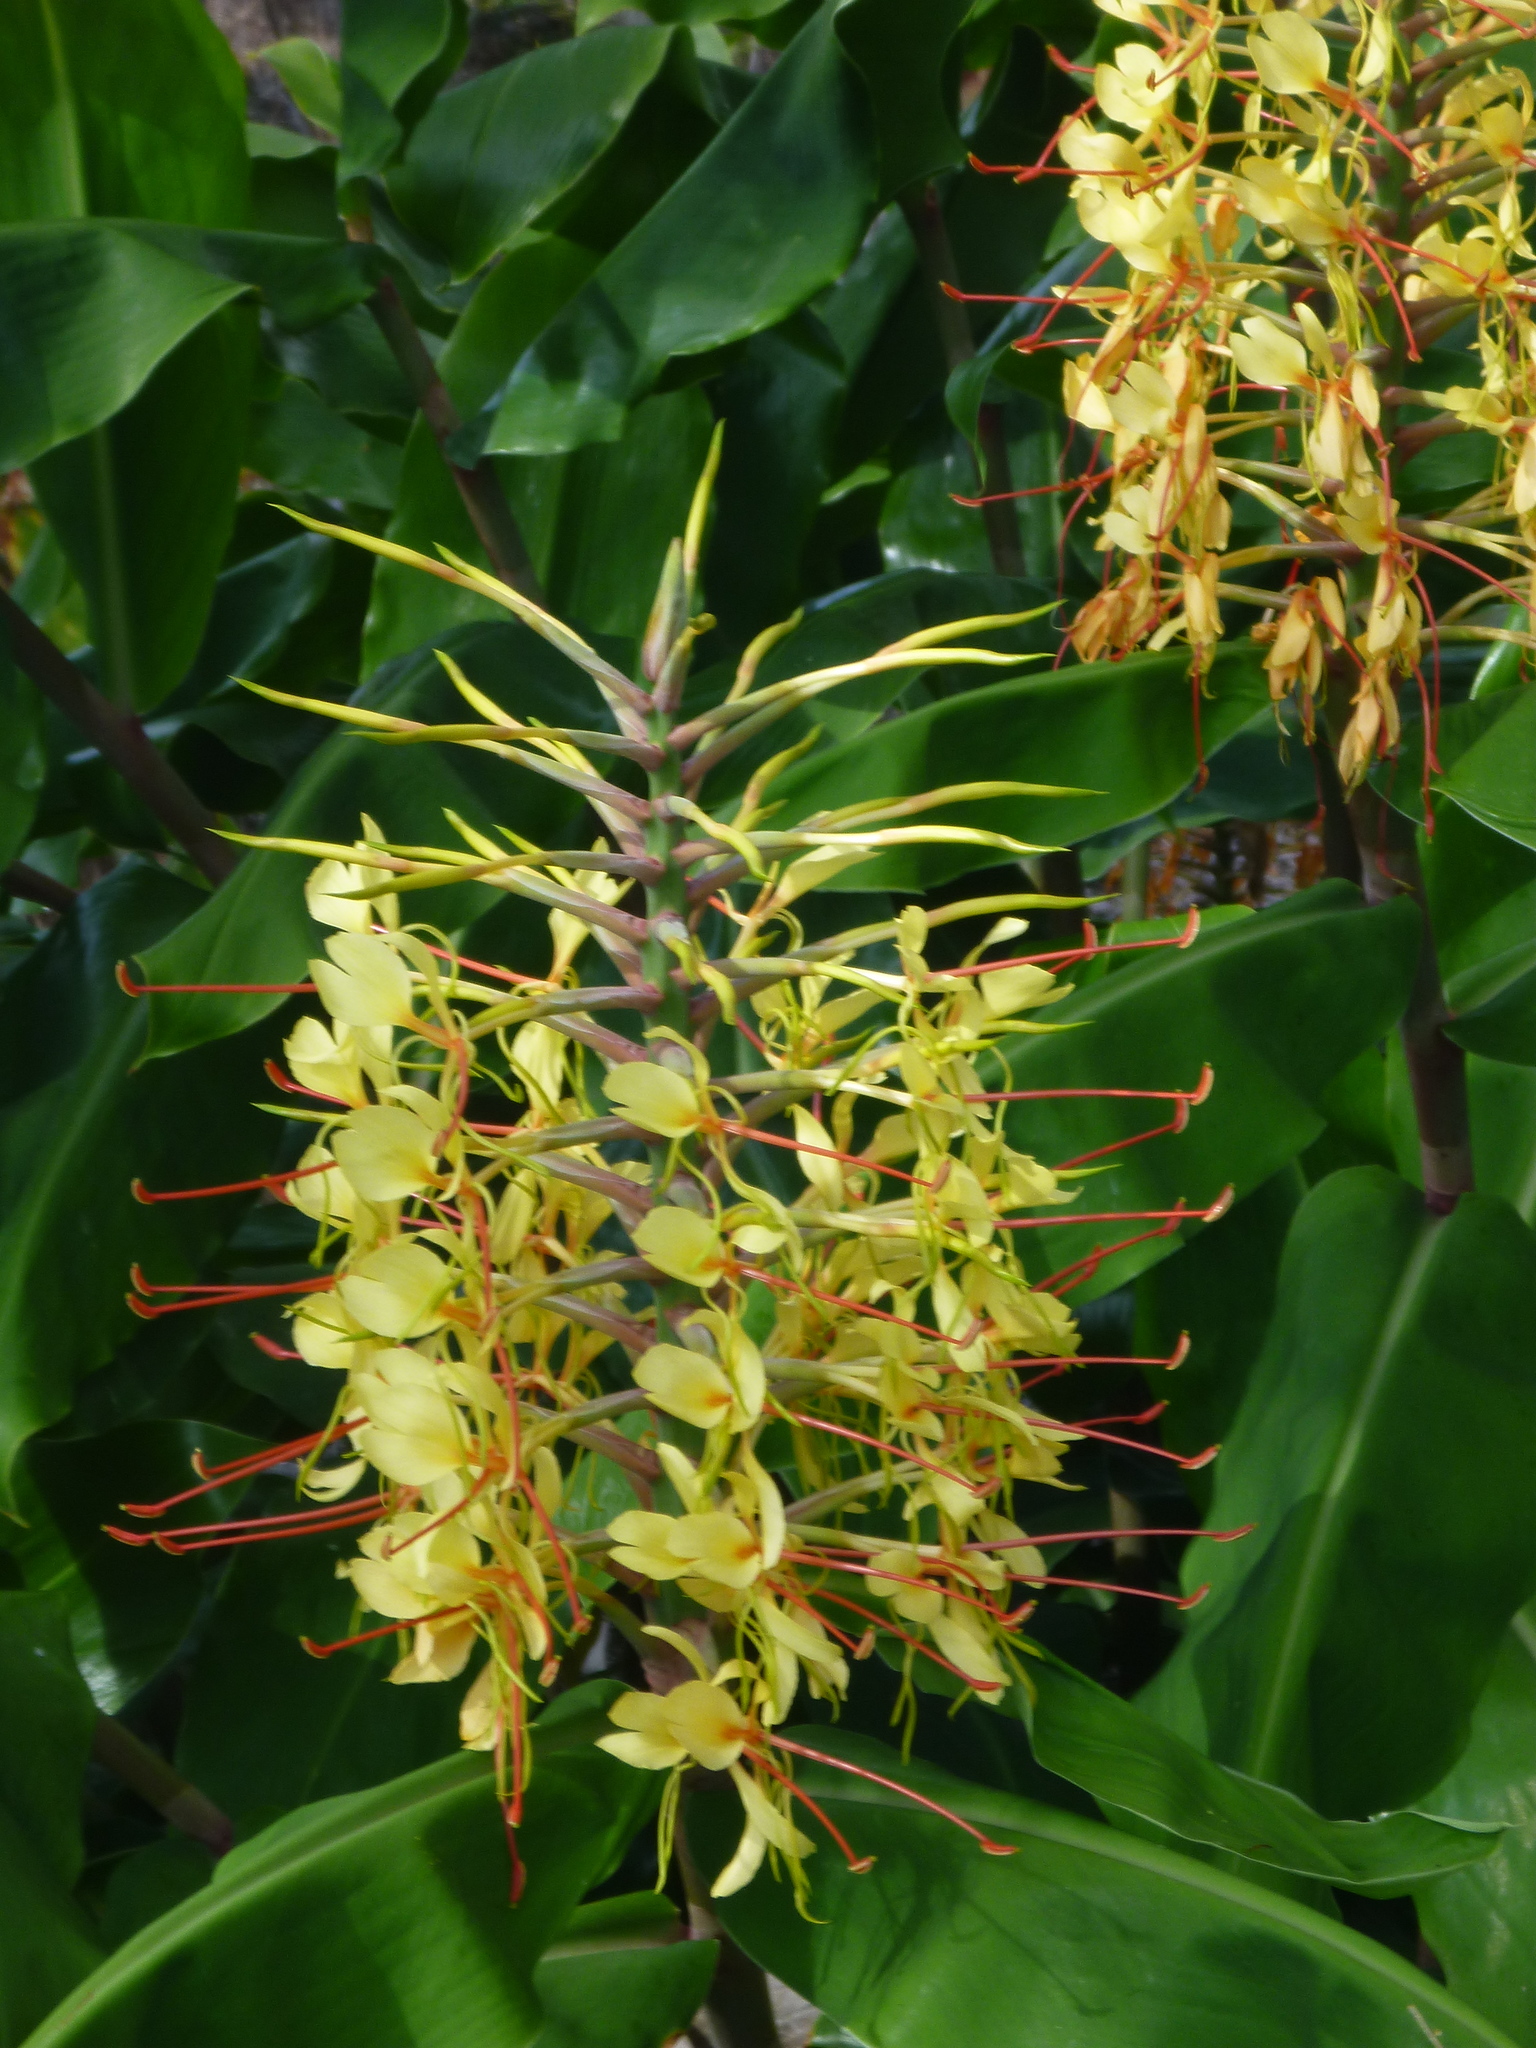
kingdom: Plantae
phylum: Tracheophyta
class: Liliopsida
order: Zingiberales
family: Zingiberaceae
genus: Hedychium
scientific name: Hedychium gardnerianum
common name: Himalayan ginger
